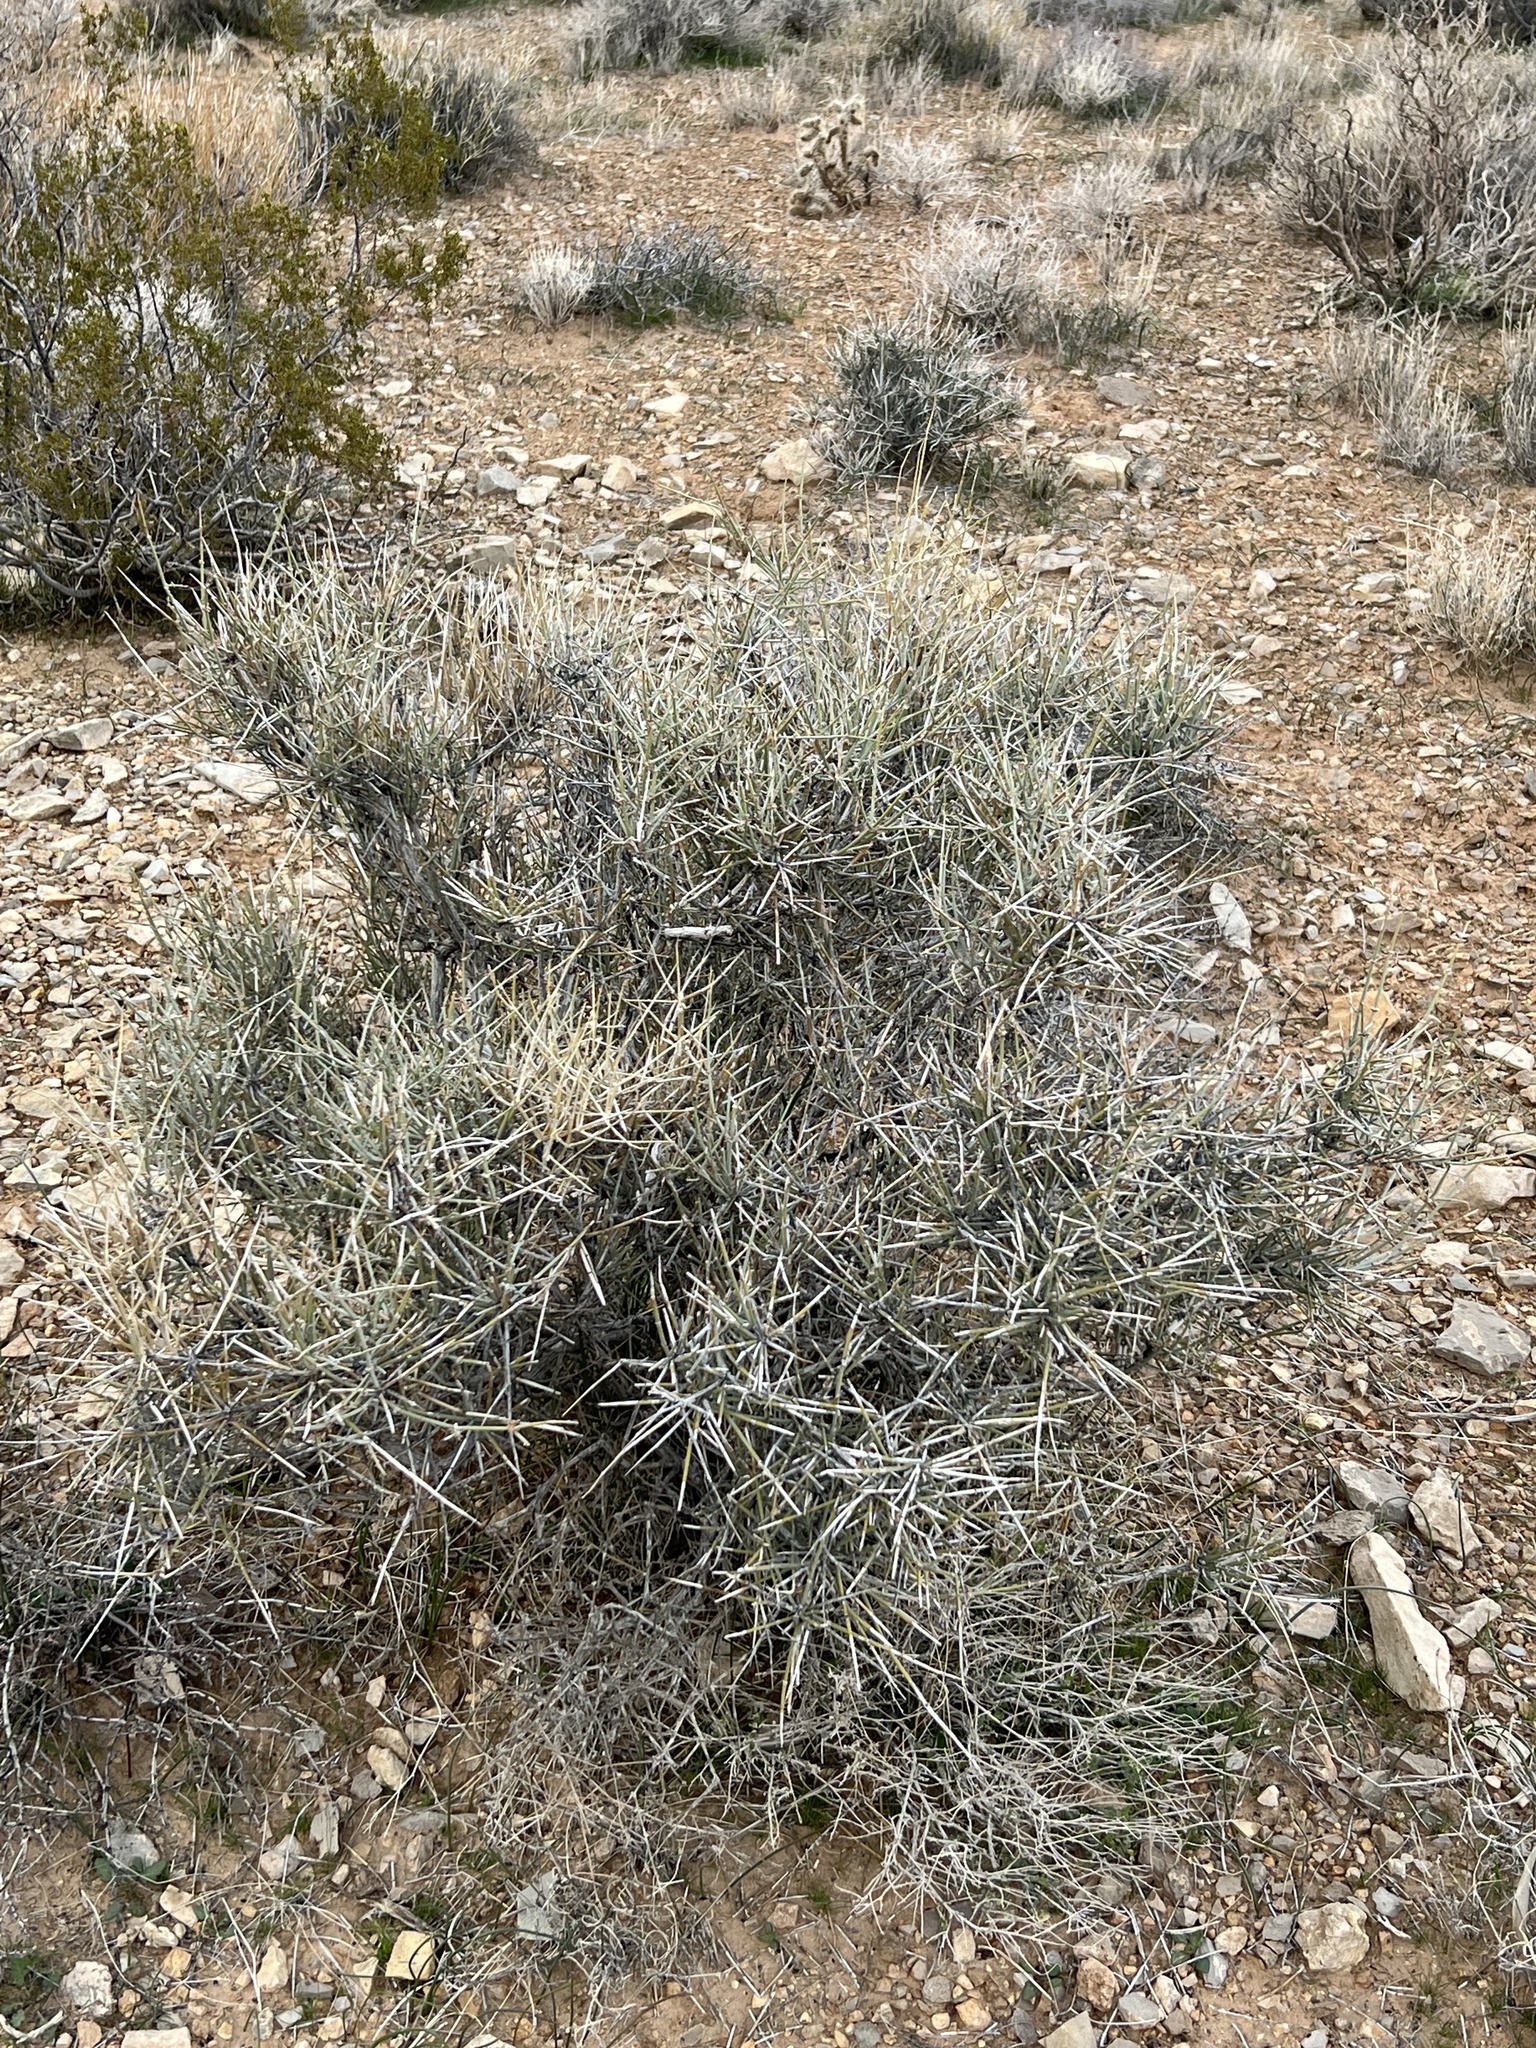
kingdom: Plantae
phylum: Tracheophyta
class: Gnetopsida
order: Ephedrales
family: Ephedraceae
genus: Ephedra
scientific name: Ephedra nevadensis
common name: Gray ephedra
